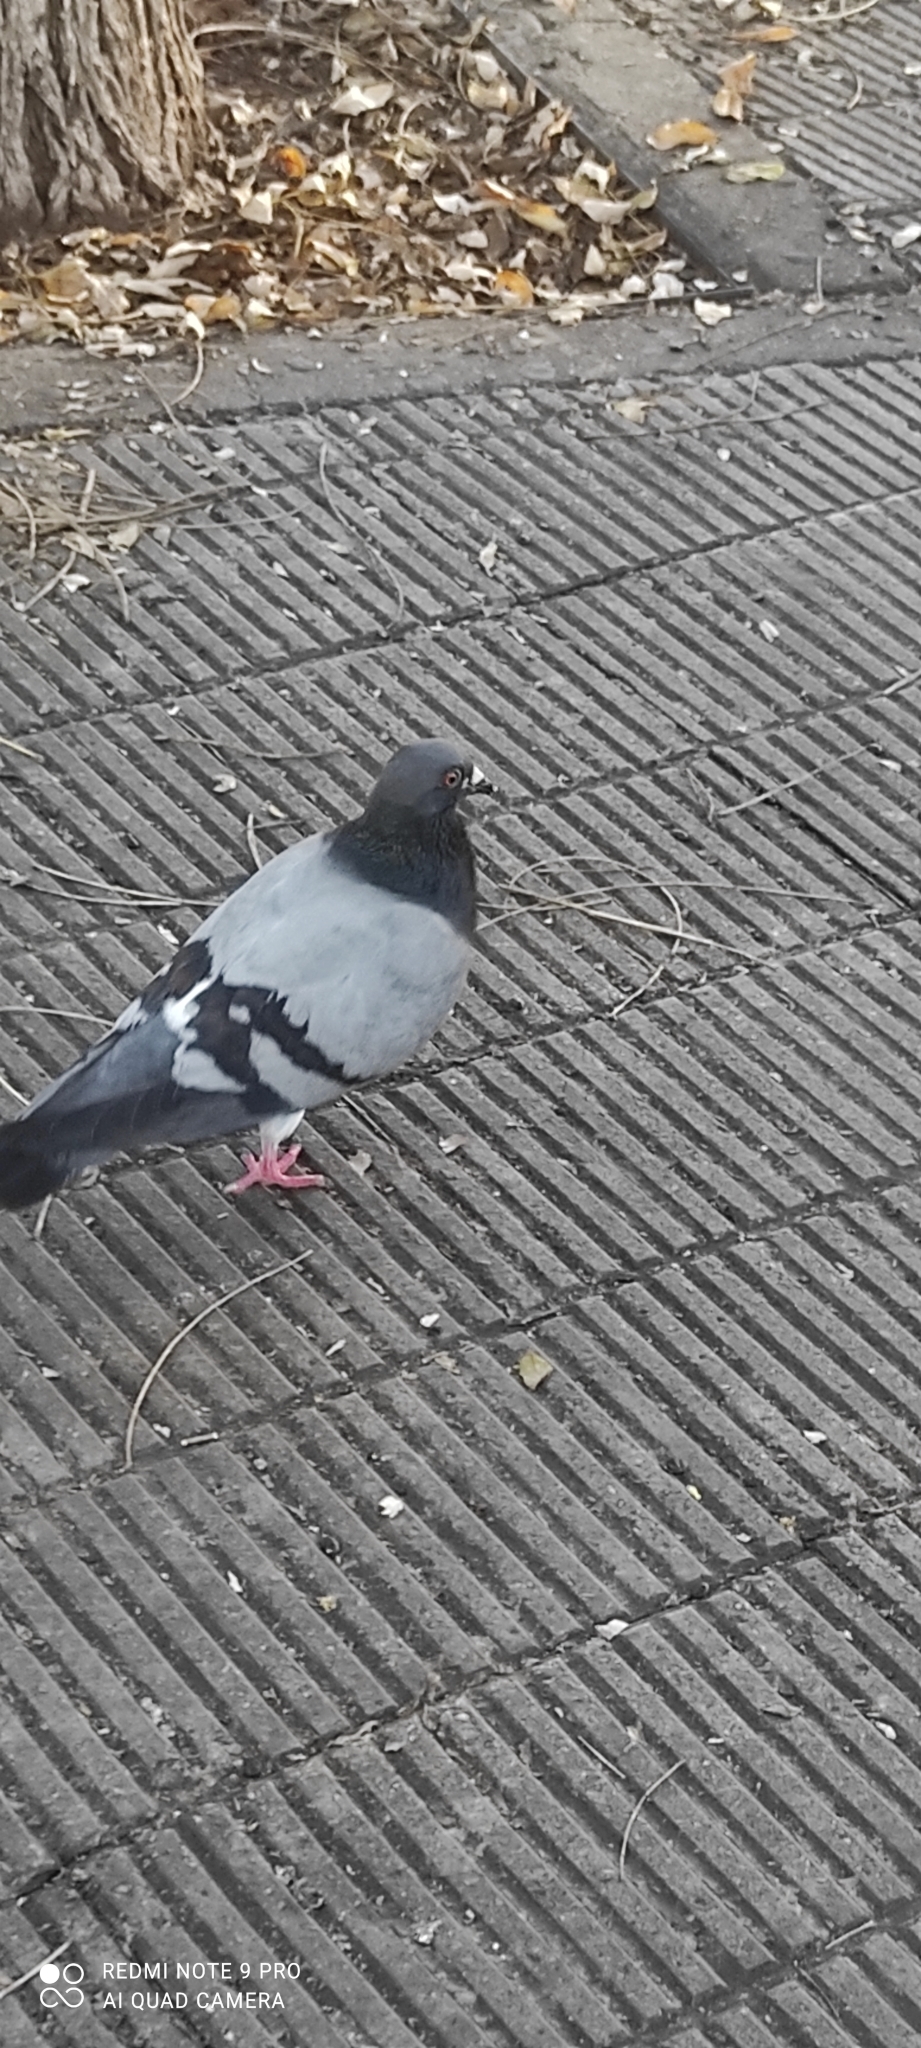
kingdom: Animalia
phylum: Chordata
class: Aves
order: Columbiformes
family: Columbidae
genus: Columba
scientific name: Columba livia
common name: Rock pigeon
